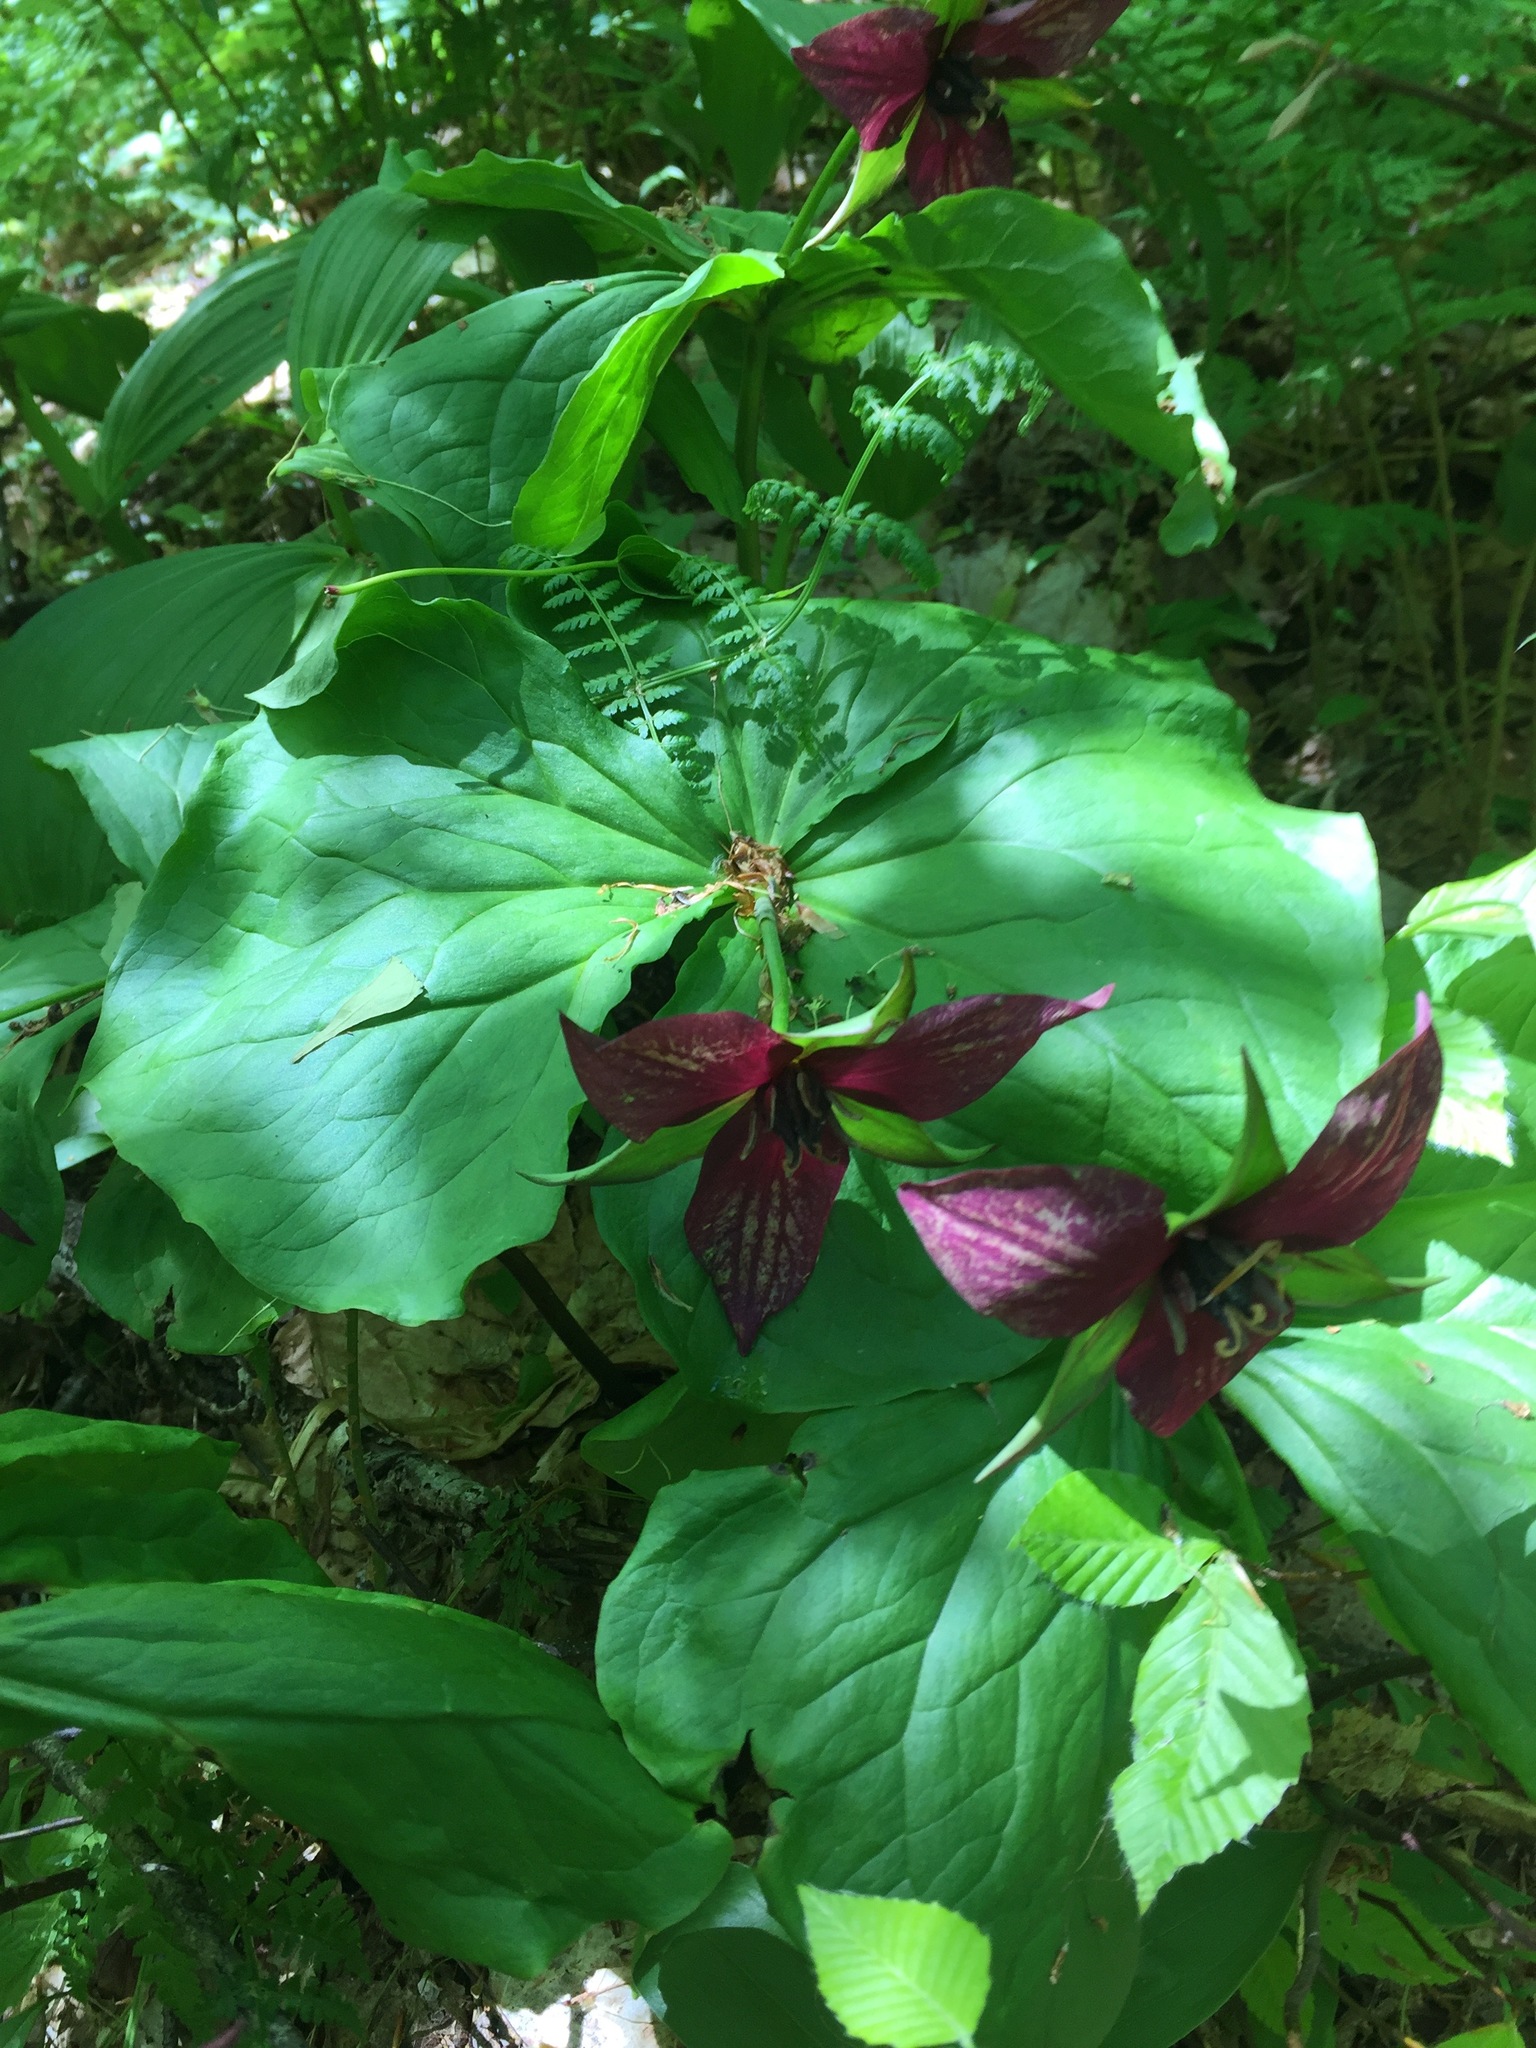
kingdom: Plantae
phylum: Tracheophyta
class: Liliopsida
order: Liliales
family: Melanthiaceae
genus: Trillium
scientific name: Trillium erectum
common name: Purple trillium
